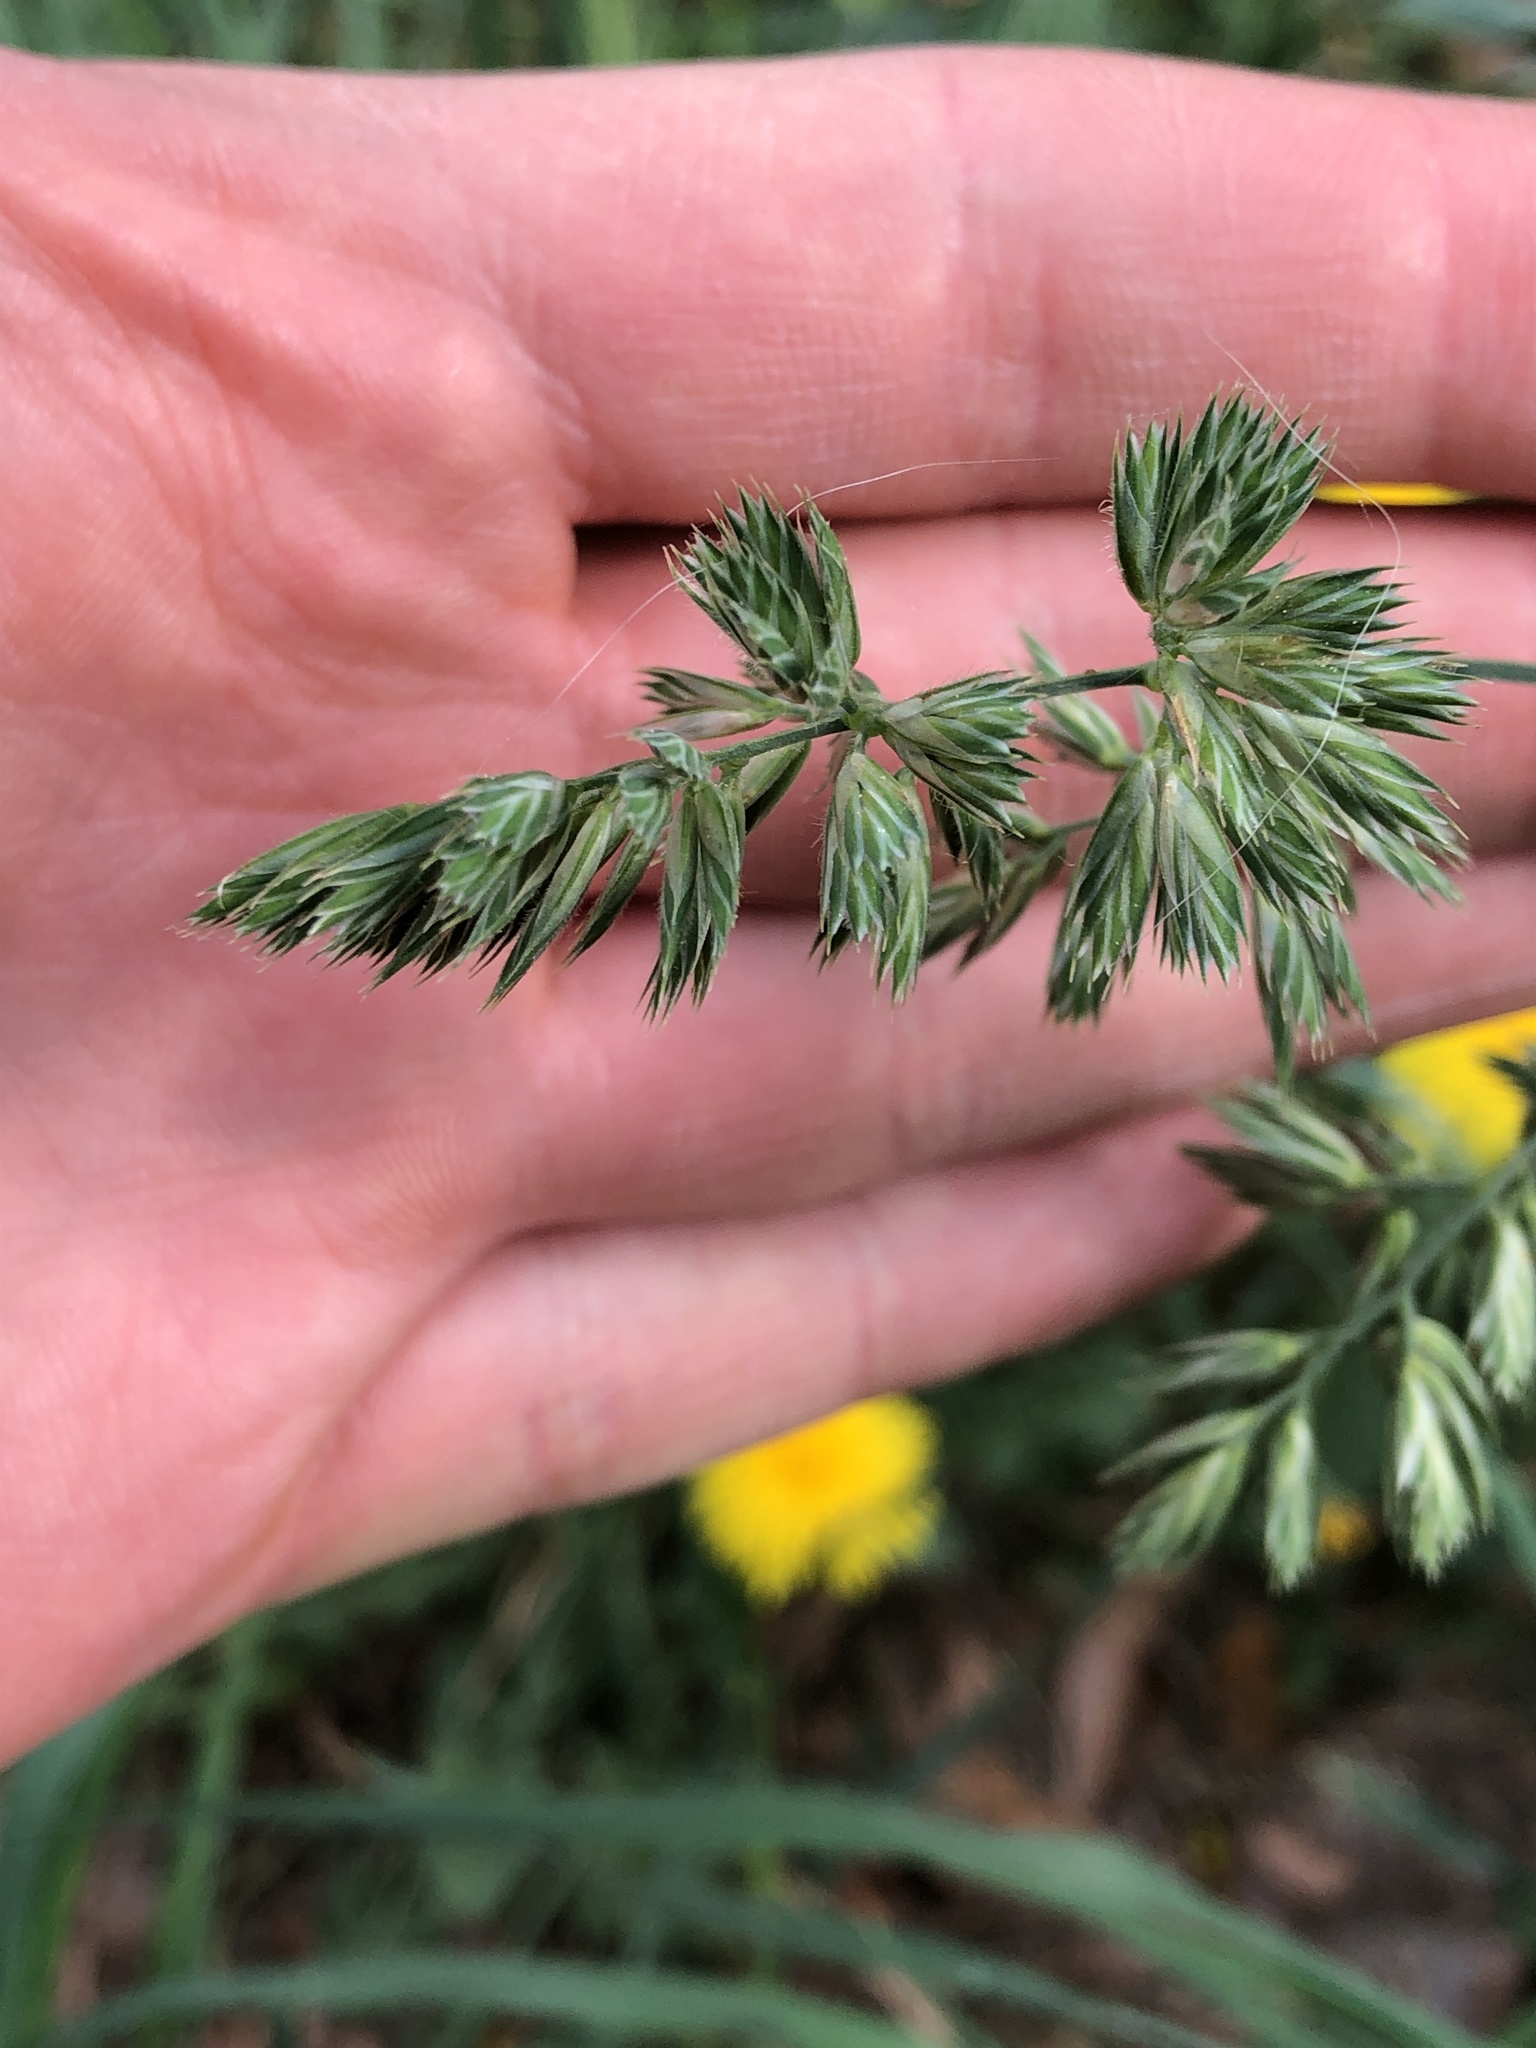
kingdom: Plantae
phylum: Tracheophyta
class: Liliopsida
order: Poales
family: Poaceae
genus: Dactylis
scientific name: Dactylis glomerata
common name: Orchardgrass
